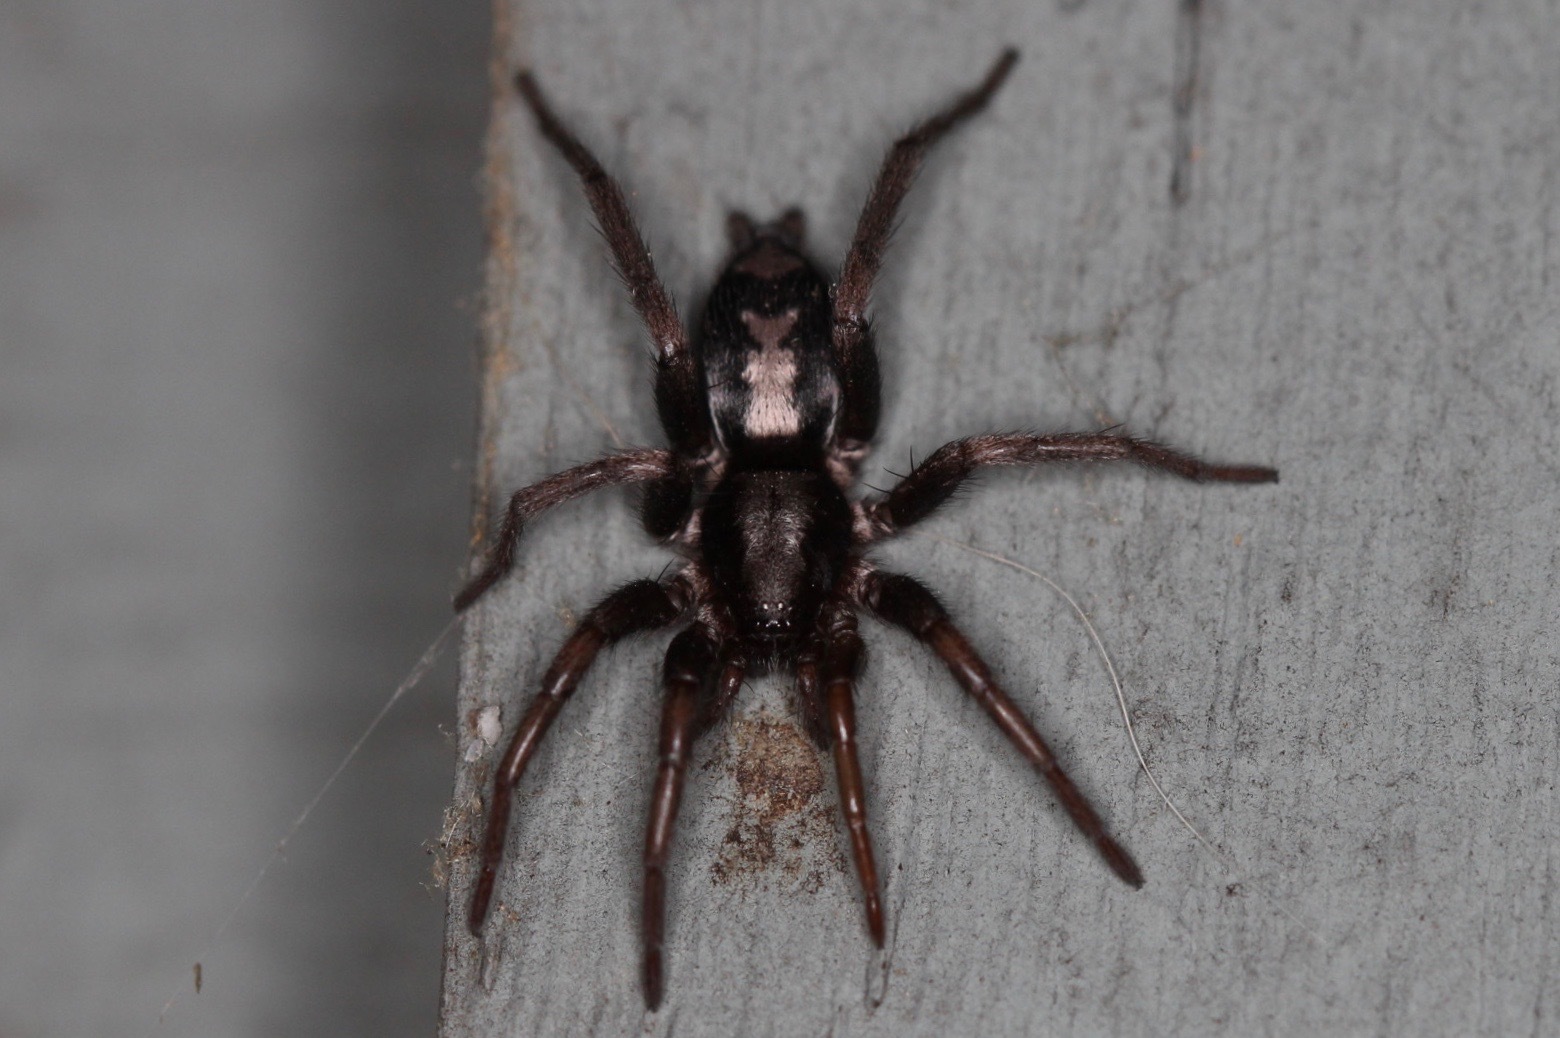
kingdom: Animalia
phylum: Arthropoda
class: Arachnida
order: Araneae
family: Gnaphosidae
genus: Herpyllus
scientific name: Herpyllus ecclesiasticus
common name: Eastern parson spider
